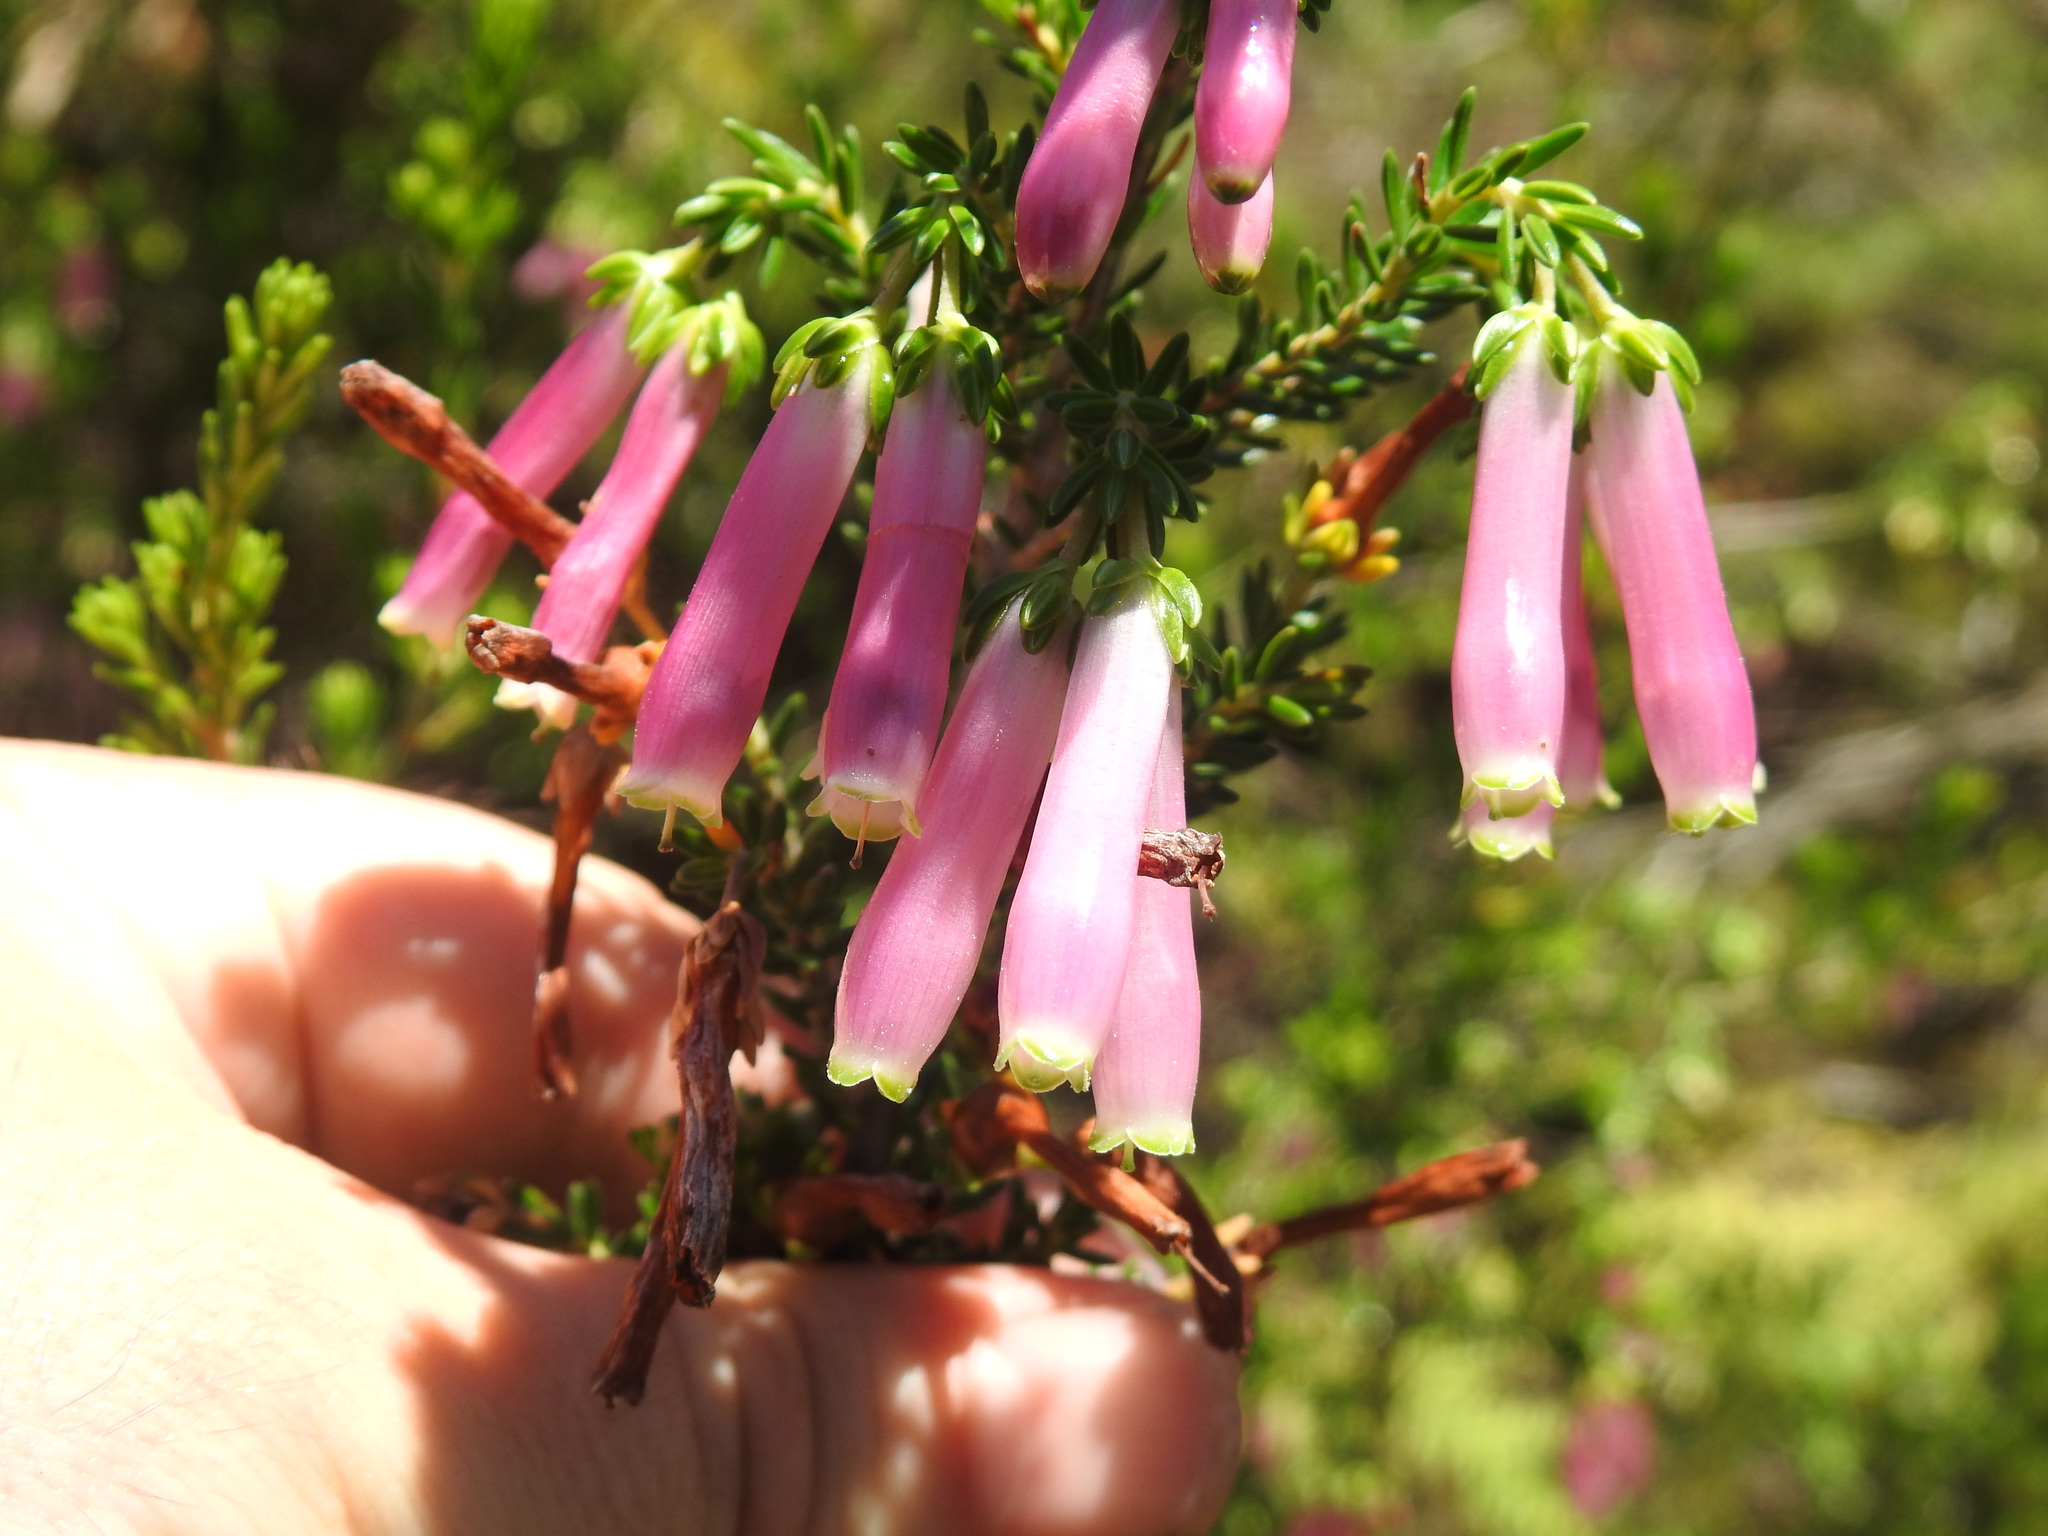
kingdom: Plantae
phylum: Tracheophyta
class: Magnoliopsida
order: Ericales
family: Ericaceae
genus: Erica
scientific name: Erica diaphana
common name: Heath
